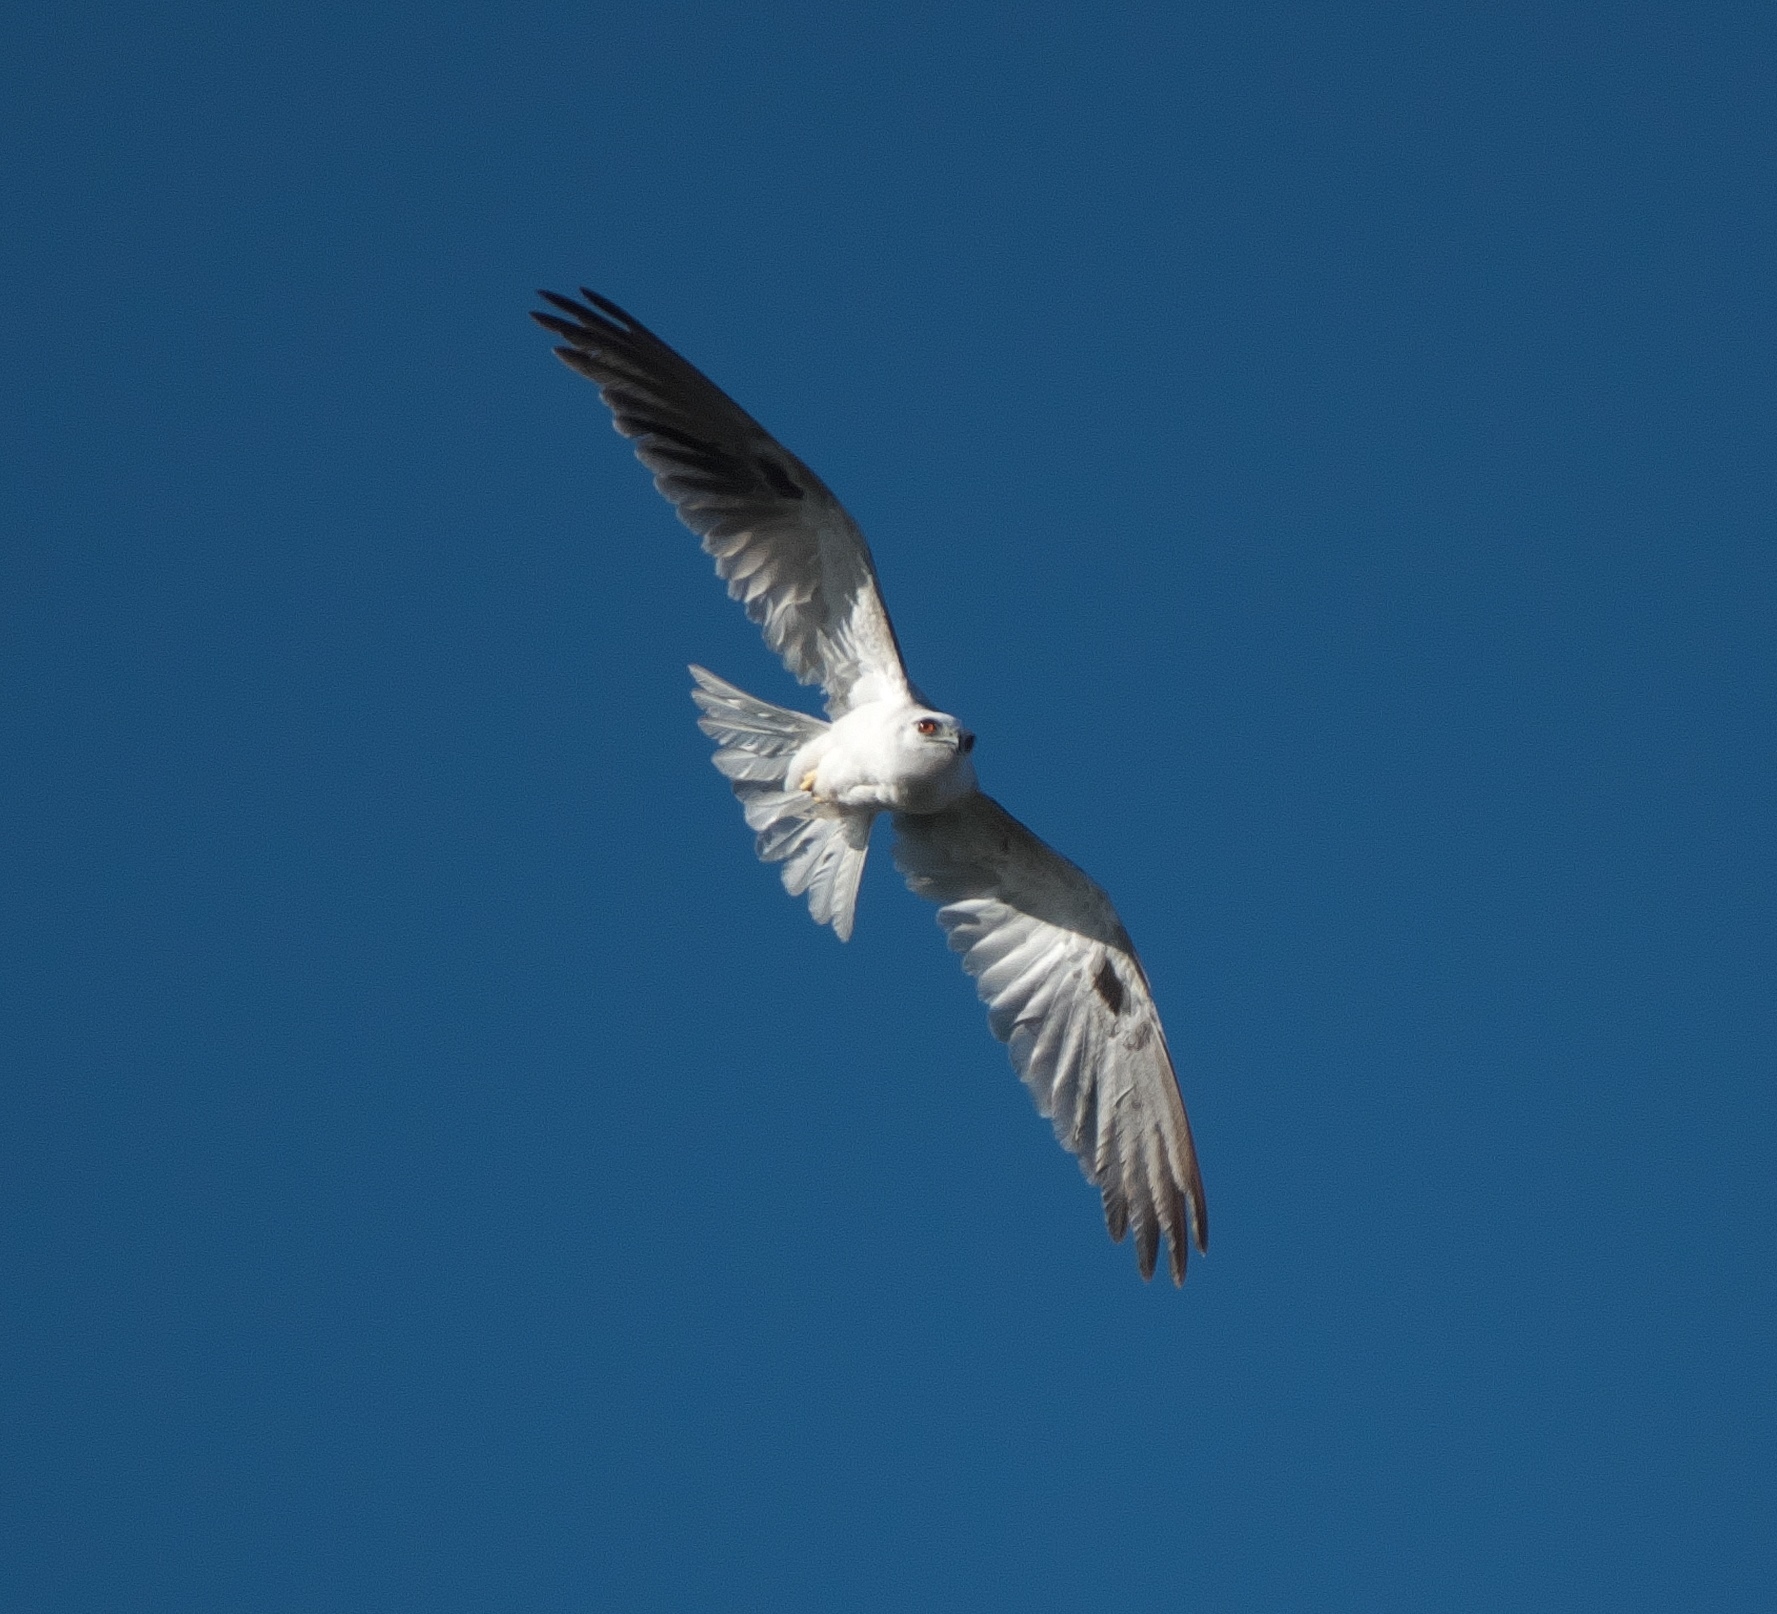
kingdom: Animalia
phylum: Chordata
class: Aves
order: Accipitriformes
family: Accipitridae
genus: Elanus
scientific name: Elanus axillaris
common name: Black-shouldered kite
